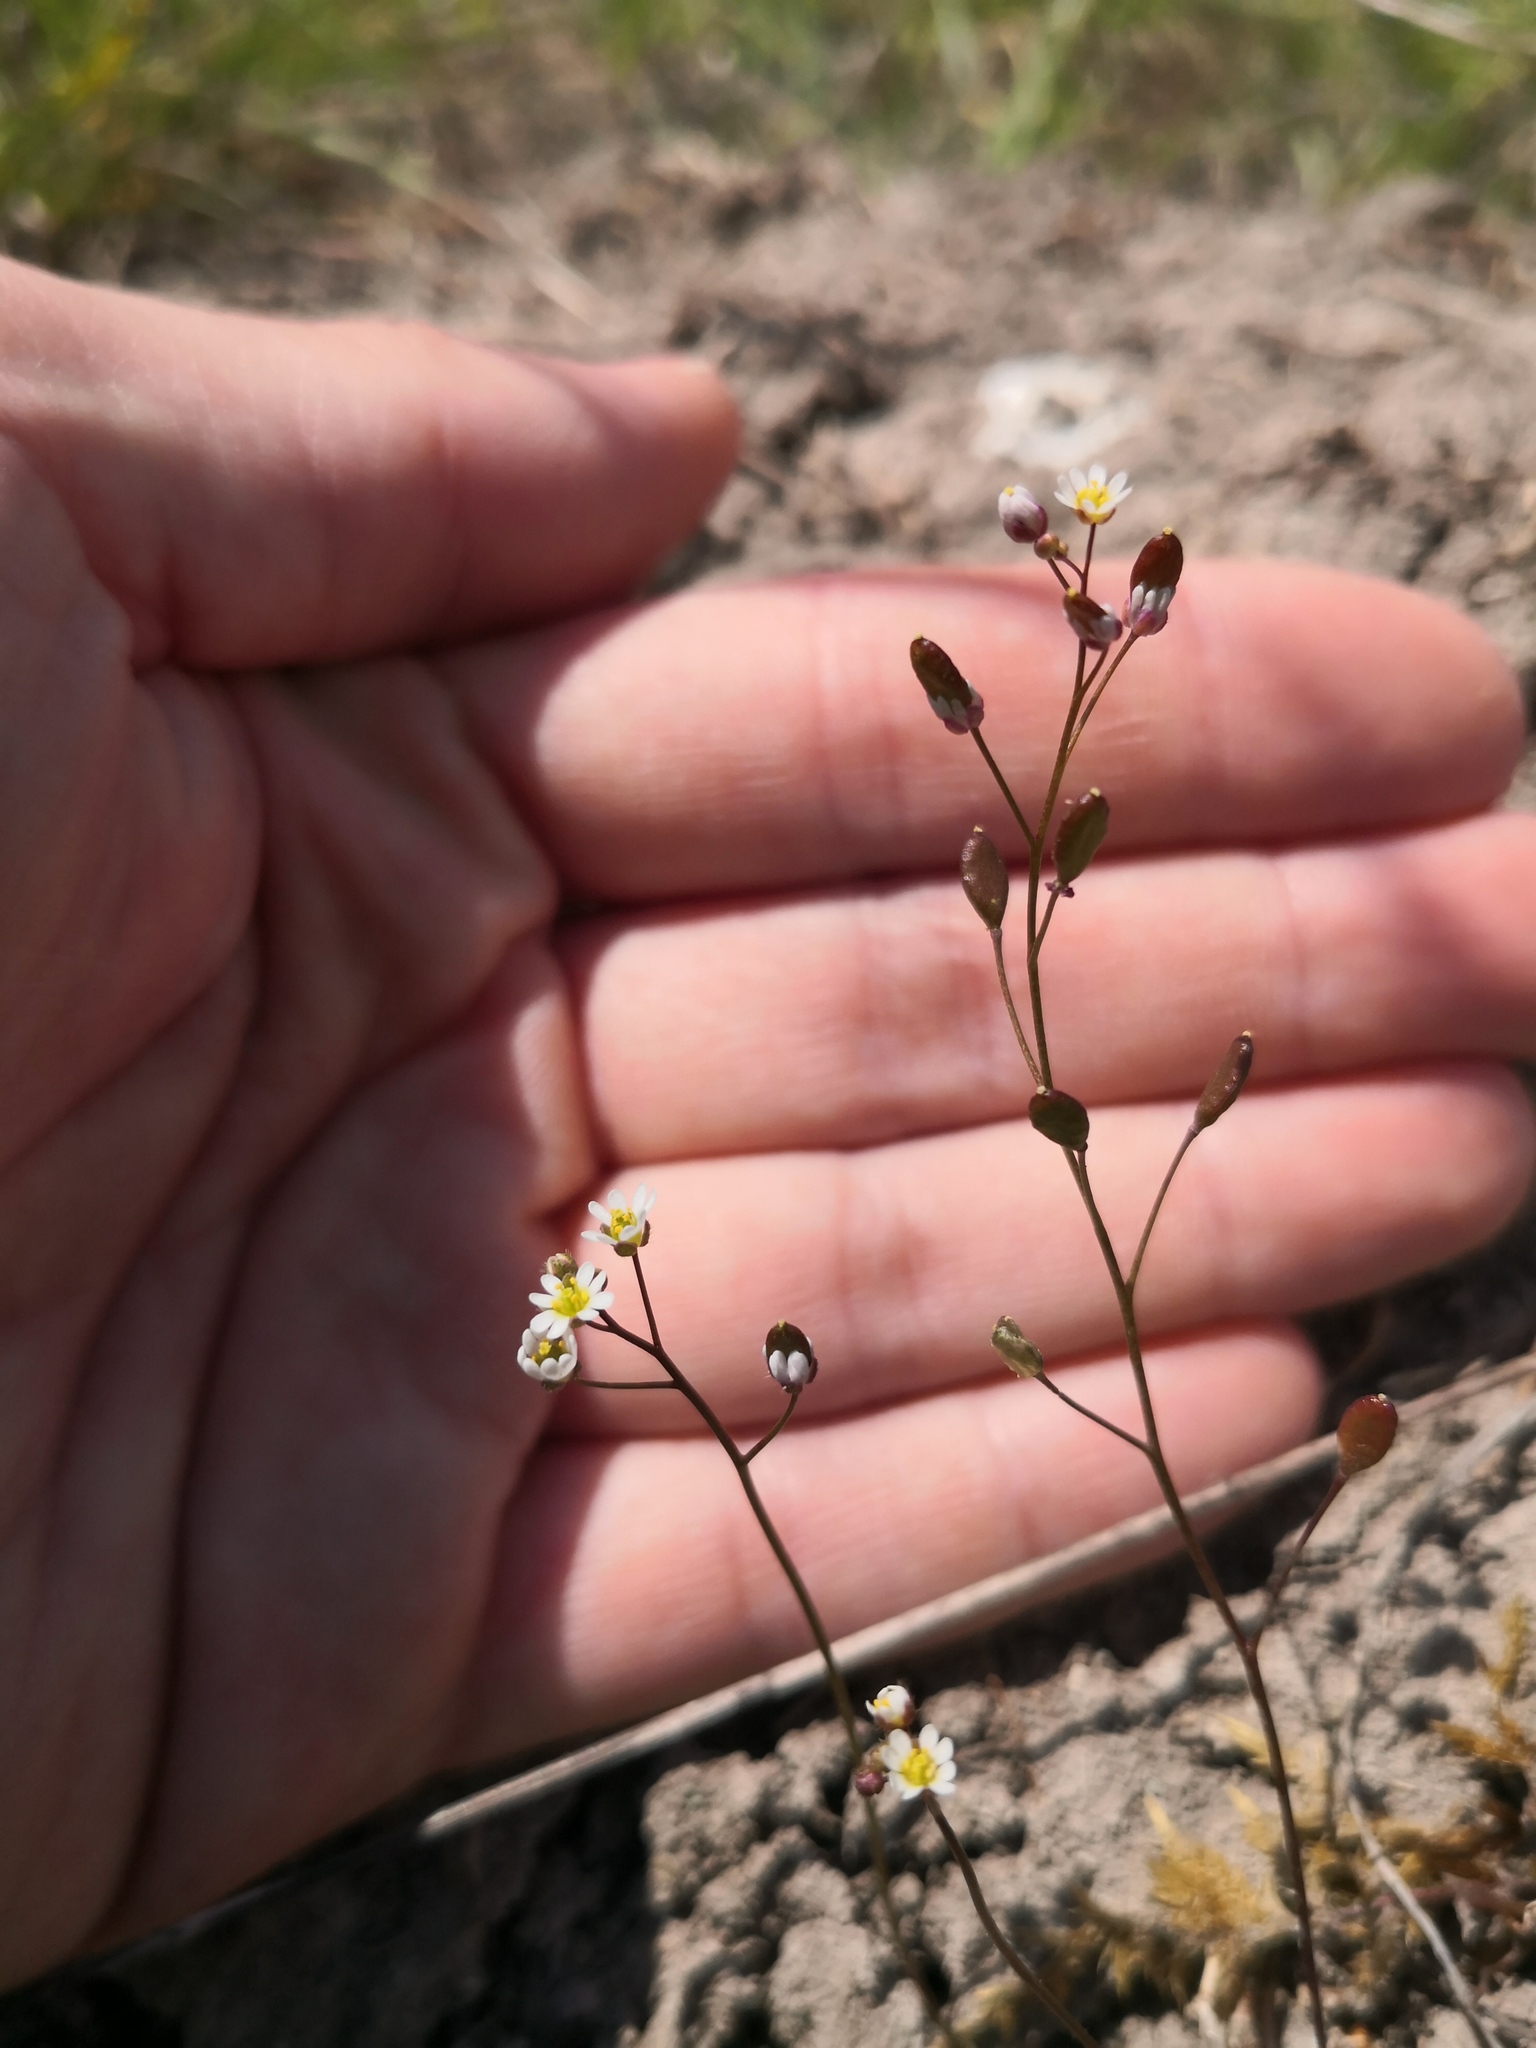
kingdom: Plantae
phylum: Tracheophyta
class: Magnoliopsida
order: Brassicales
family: Brassicaceae
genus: Draba
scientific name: Draba verna
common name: Spring draba
